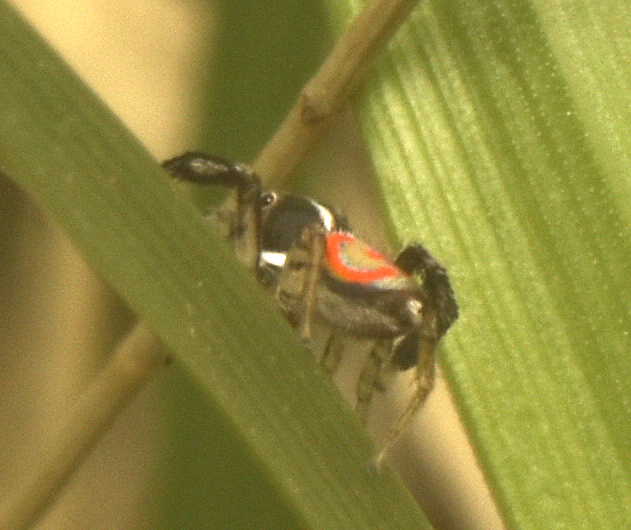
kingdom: Animalia
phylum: Arthropoda
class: Arachnida
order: Araneae
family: Salticidae
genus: Maratus
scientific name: Maratus pavonis
